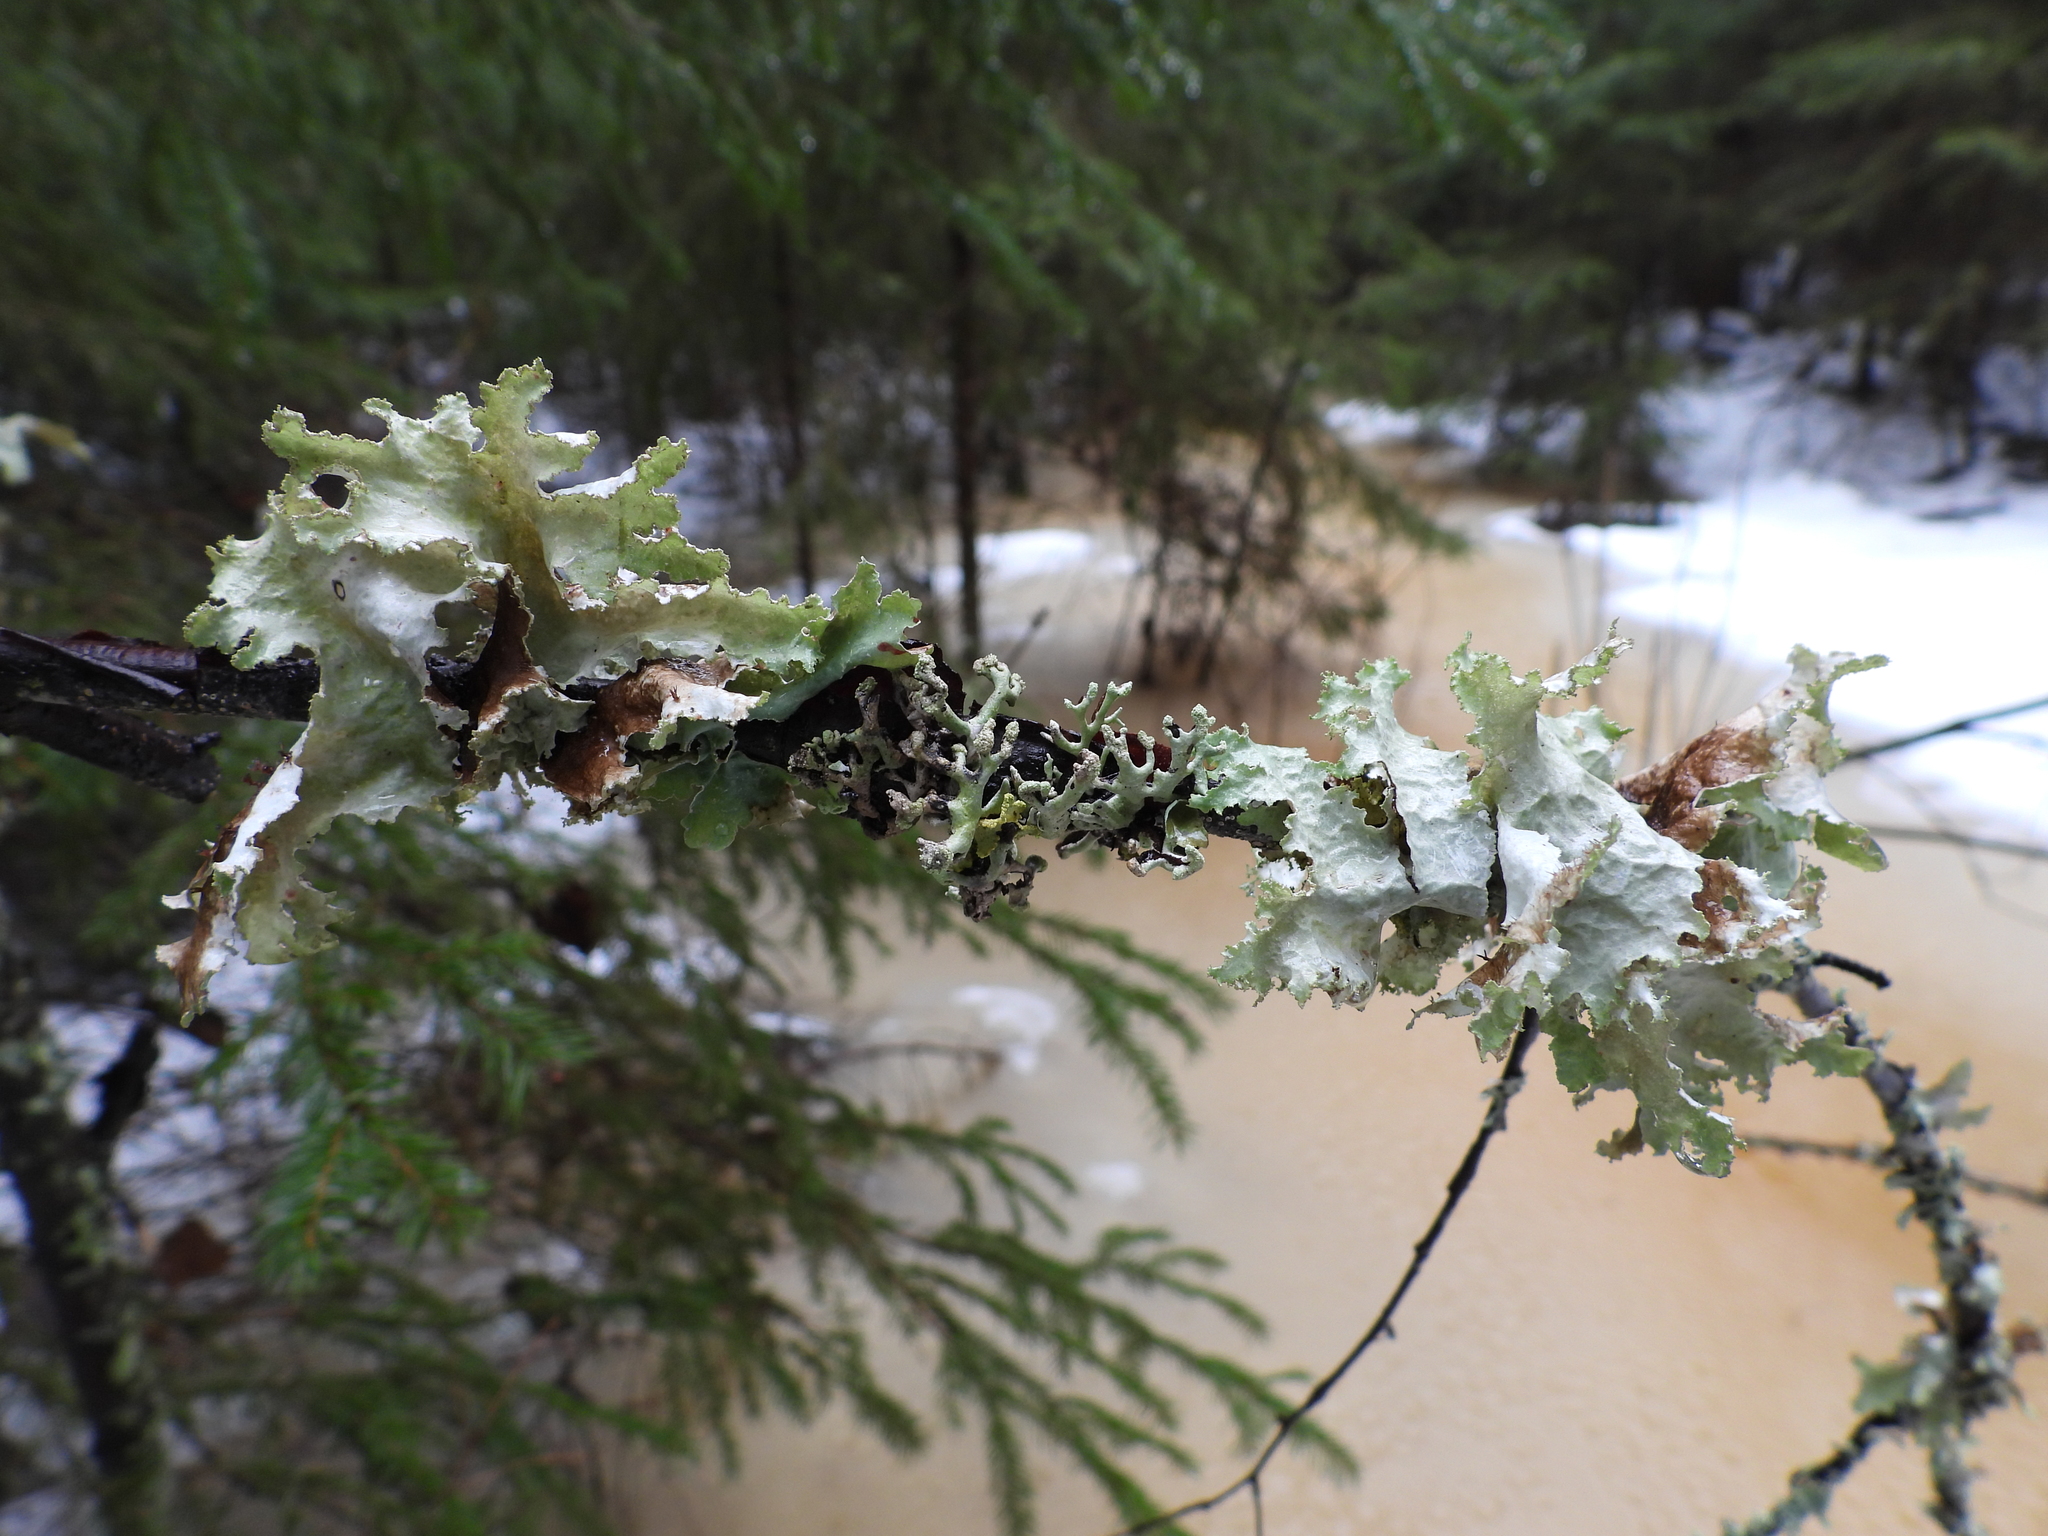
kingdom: Fungi
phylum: Ascomycota
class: Lecanoromycetes
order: Lecanorales
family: Parmeliaceae
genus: Platismatia
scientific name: Platismatia glauca
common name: Varied rag lichen
